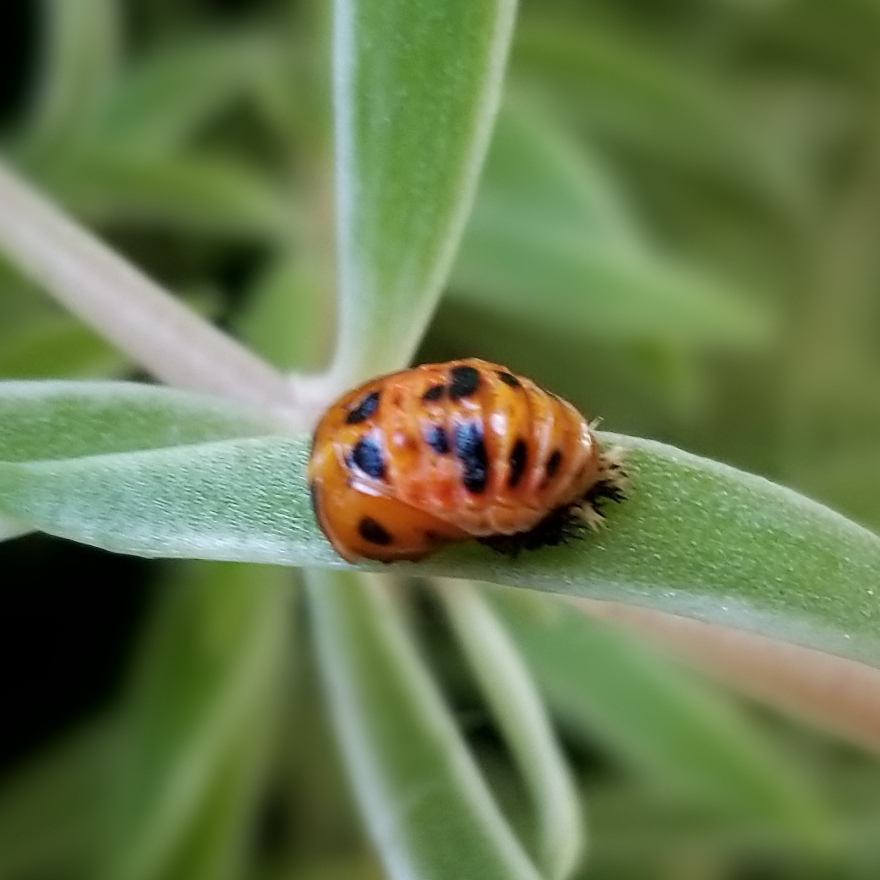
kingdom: Animalia
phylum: Arthropoda
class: Insecta
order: Coleoptera
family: Coccinellidae
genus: Harmonia
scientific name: Harmonia axyridis
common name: Harlequin ladybird
